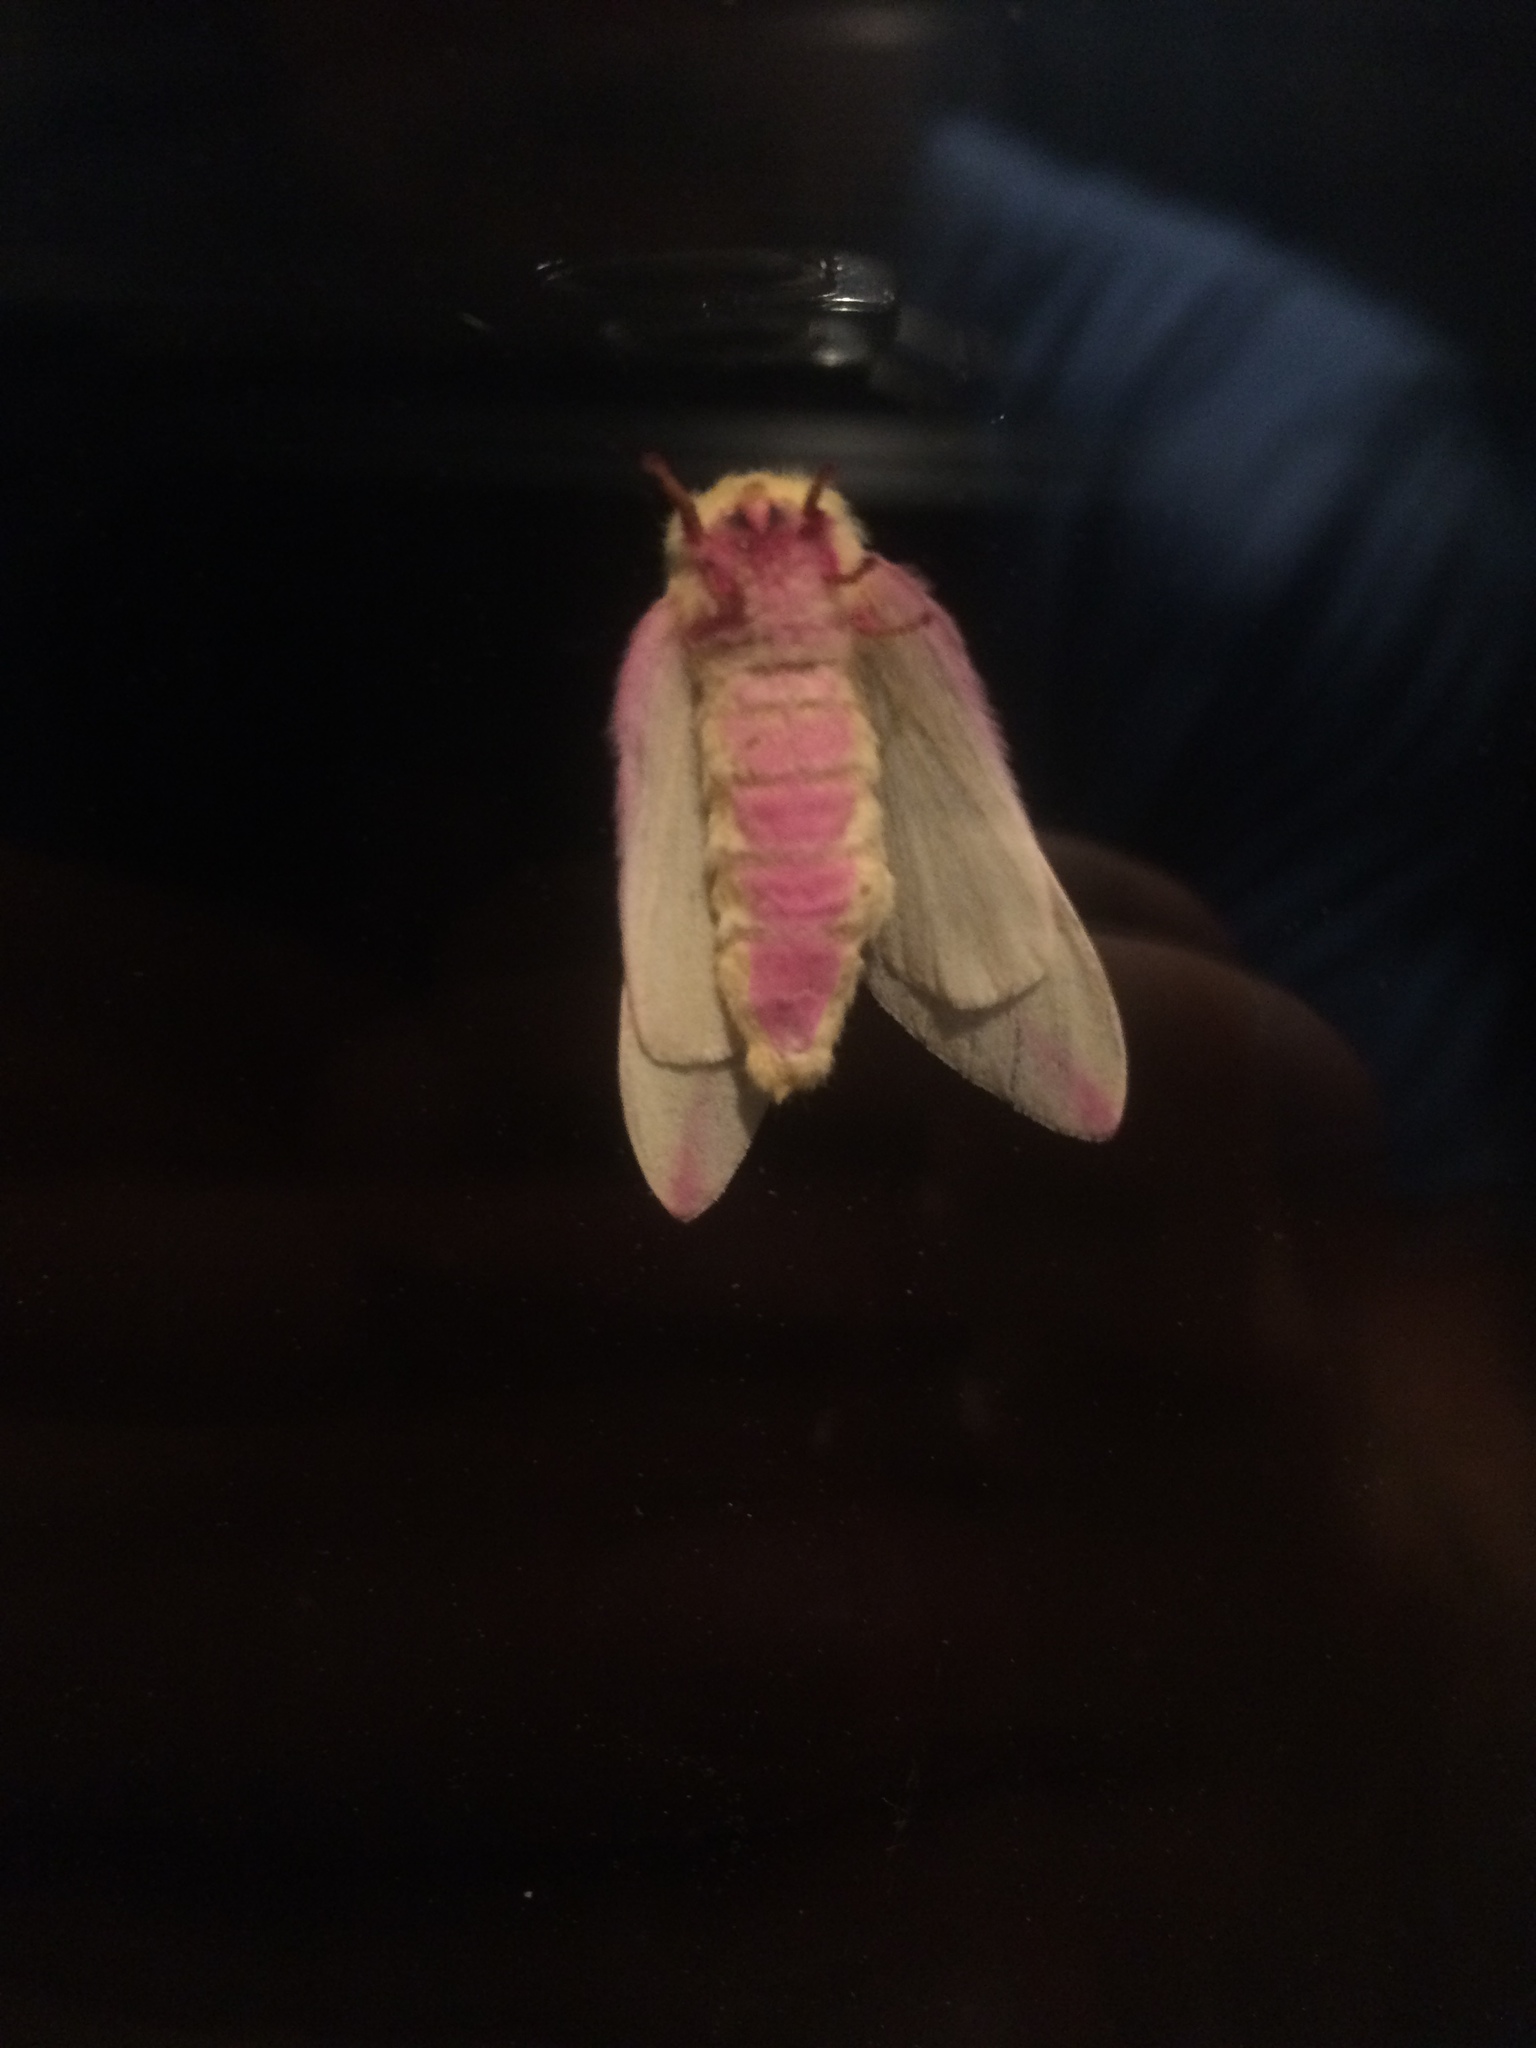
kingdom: Animalia
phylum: Arthropoda
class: Insecta
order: Lepidoptera
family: Saturniidae
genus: Dryocampa
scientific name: Dryocampa rubicunda
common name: Rosy maple moth
